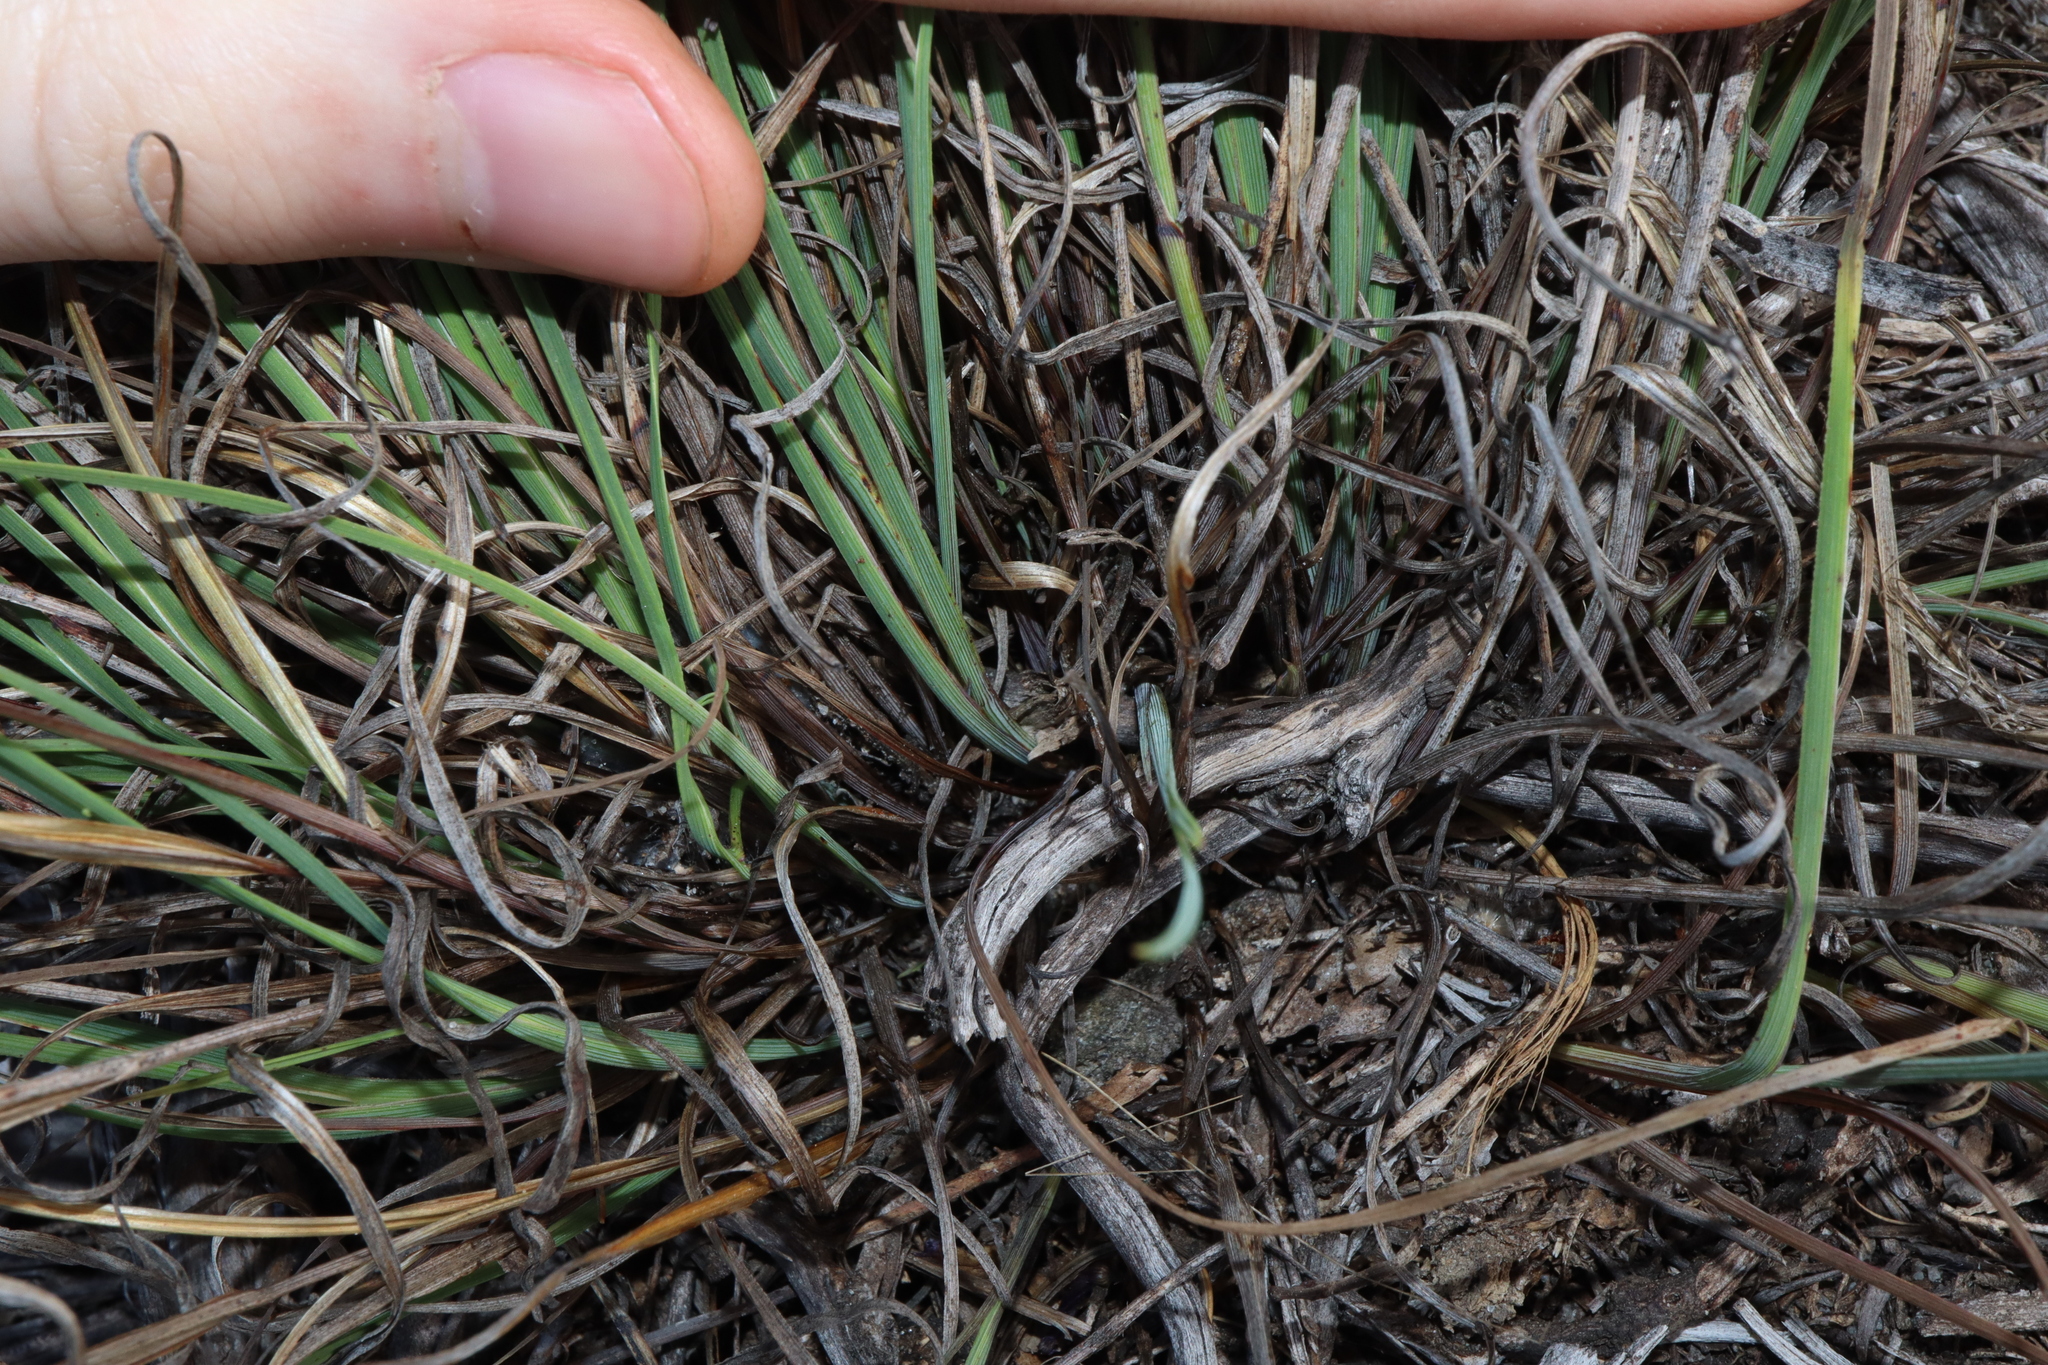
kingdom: Plantae
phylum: Tracheophyta
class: Liliopsida
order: Asparagales
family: Asphodelaceae
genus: Agrostocrinum
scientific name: Agrostocrinum scabrum
